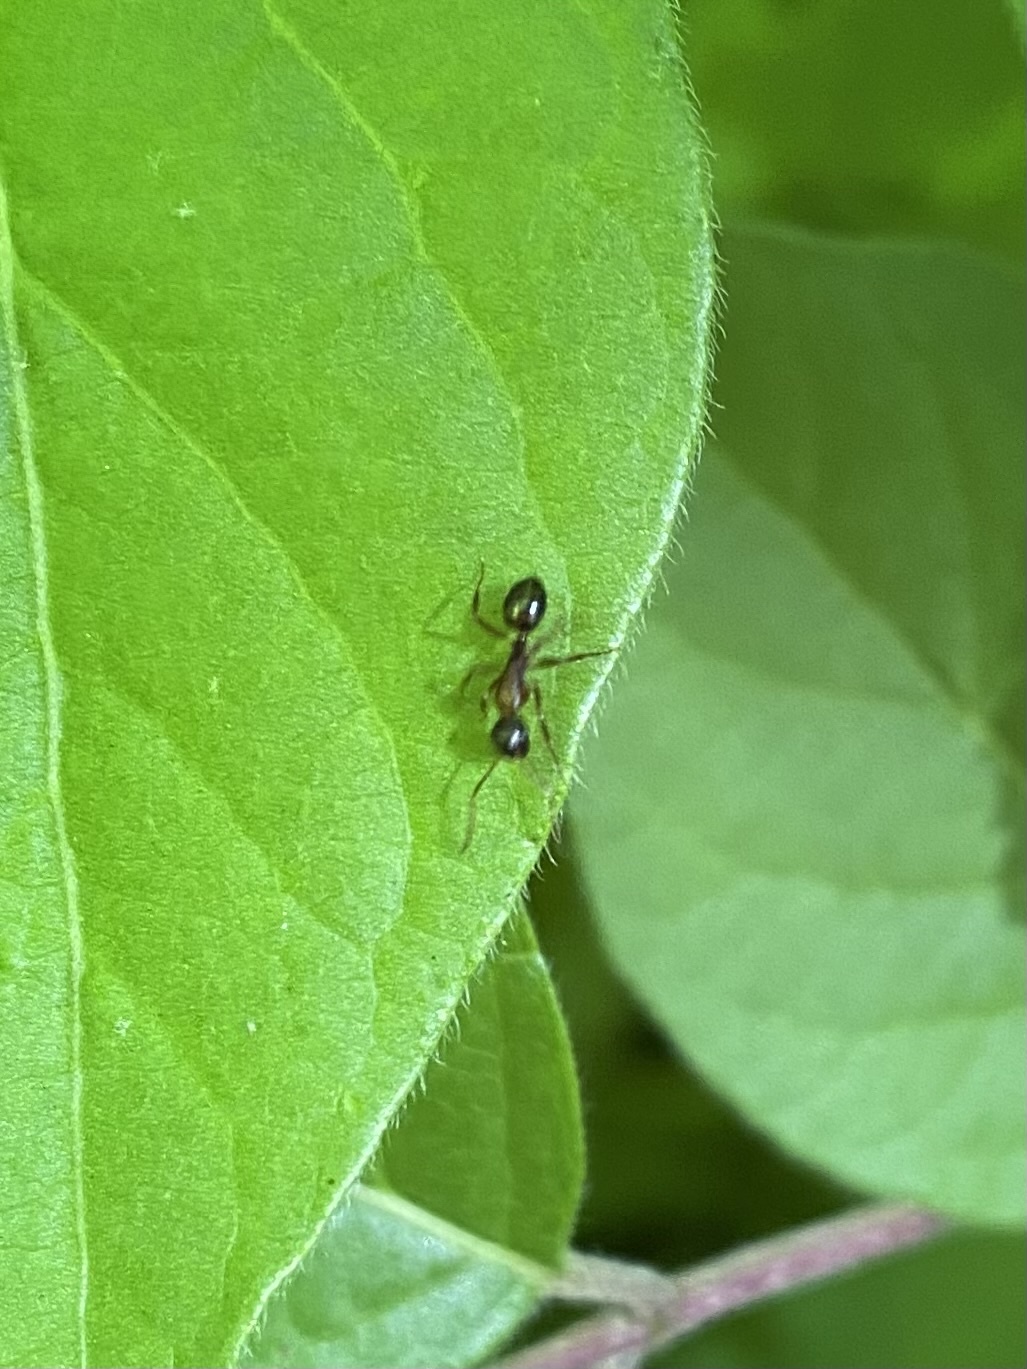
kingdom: Animalia
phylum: Arthropoda
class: Insecta
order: Hymenoptera
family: Formicidae
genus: Camponotus
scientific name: Camponotus subbarbatus
